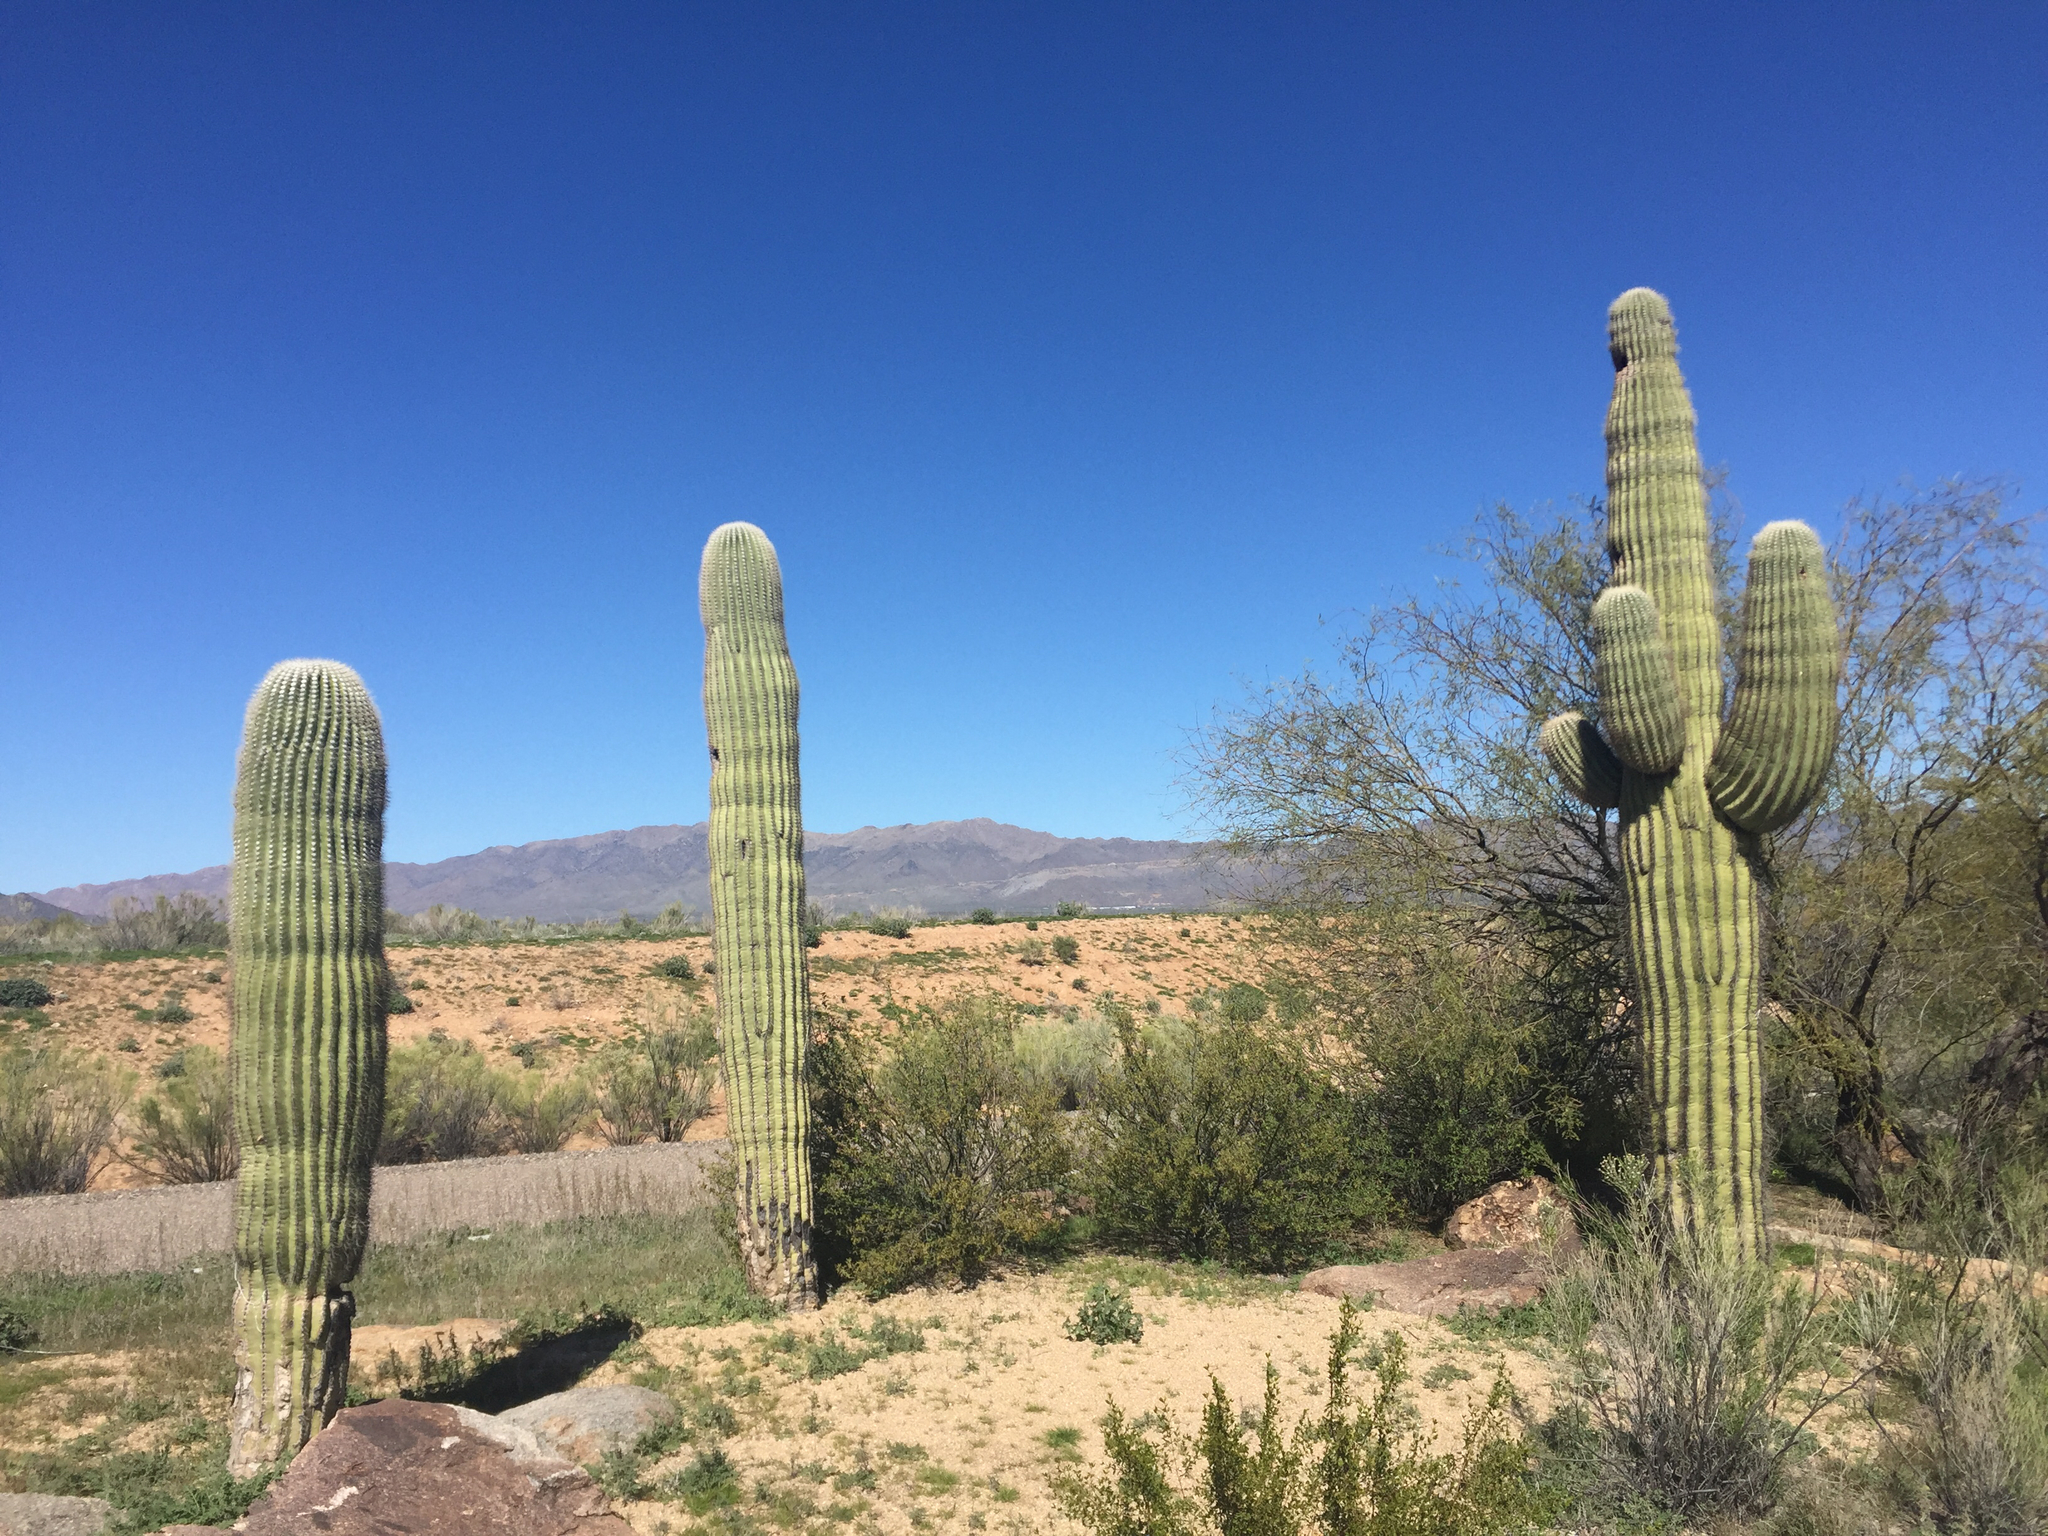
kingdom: Plantae
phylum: Tracheophyta
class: Magnoliopsida
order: Caryophyllales
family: Cactaceae
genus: Carnegiea
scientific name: Carnegiea gigantea
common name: Saguaro
